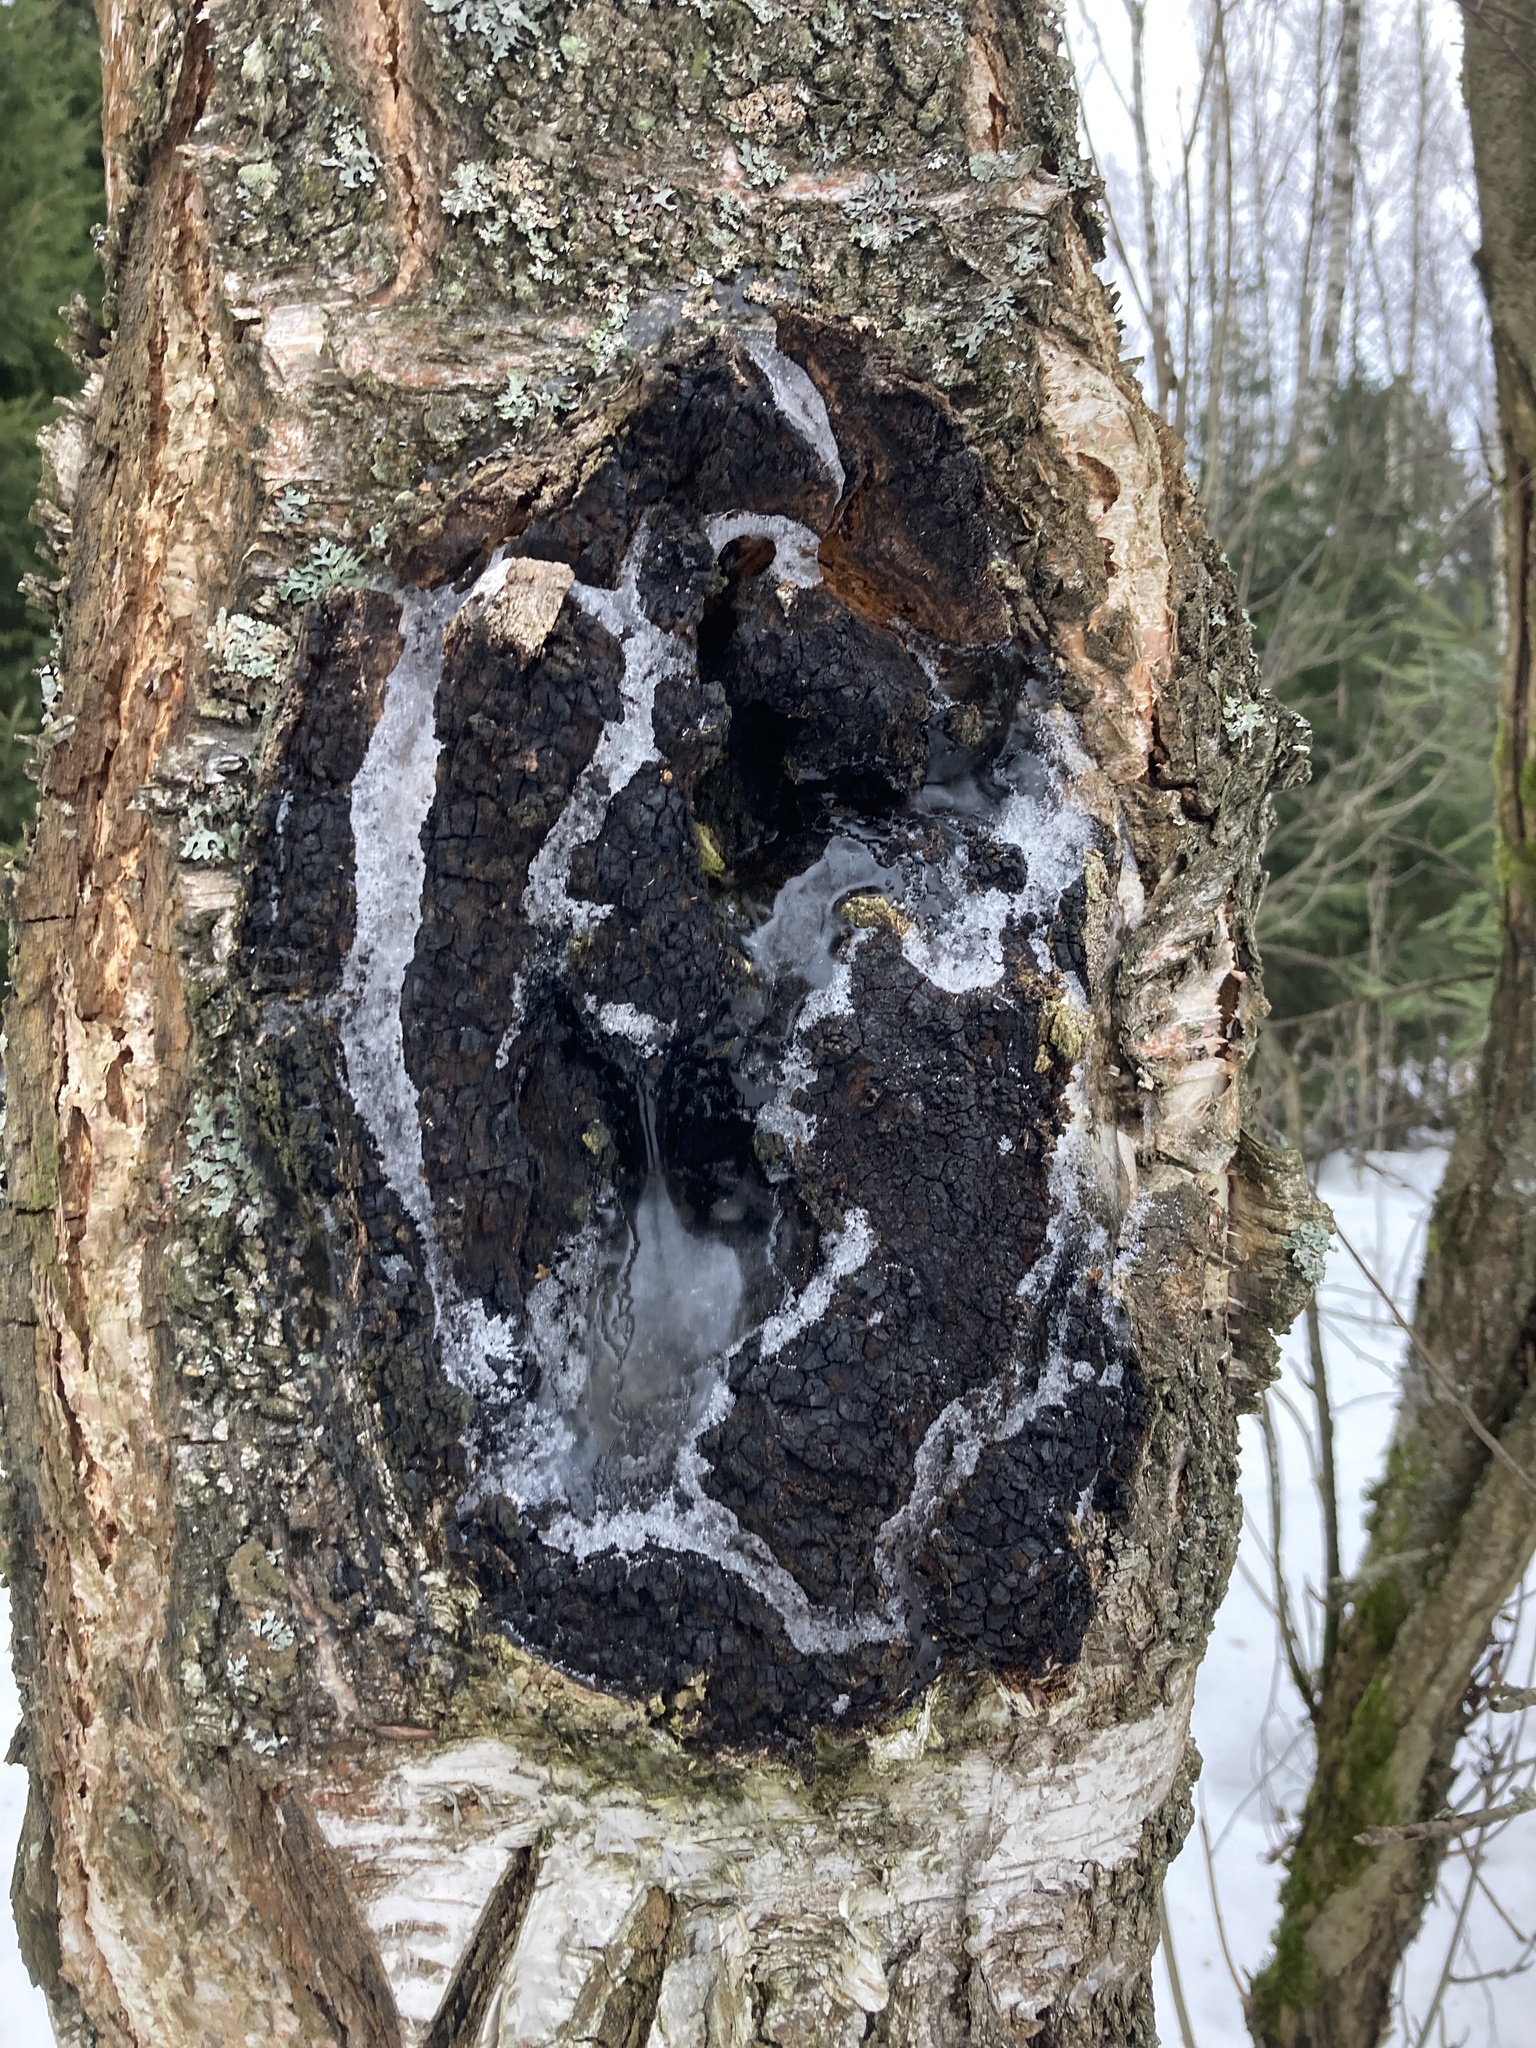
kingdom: Fungi
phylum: Basidiomycota
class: Agaricomycetes
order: Hymenochaetales
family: Hymenochaetaceae
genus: Inonotus
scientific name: Inonotus obliquus
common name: Chaga
